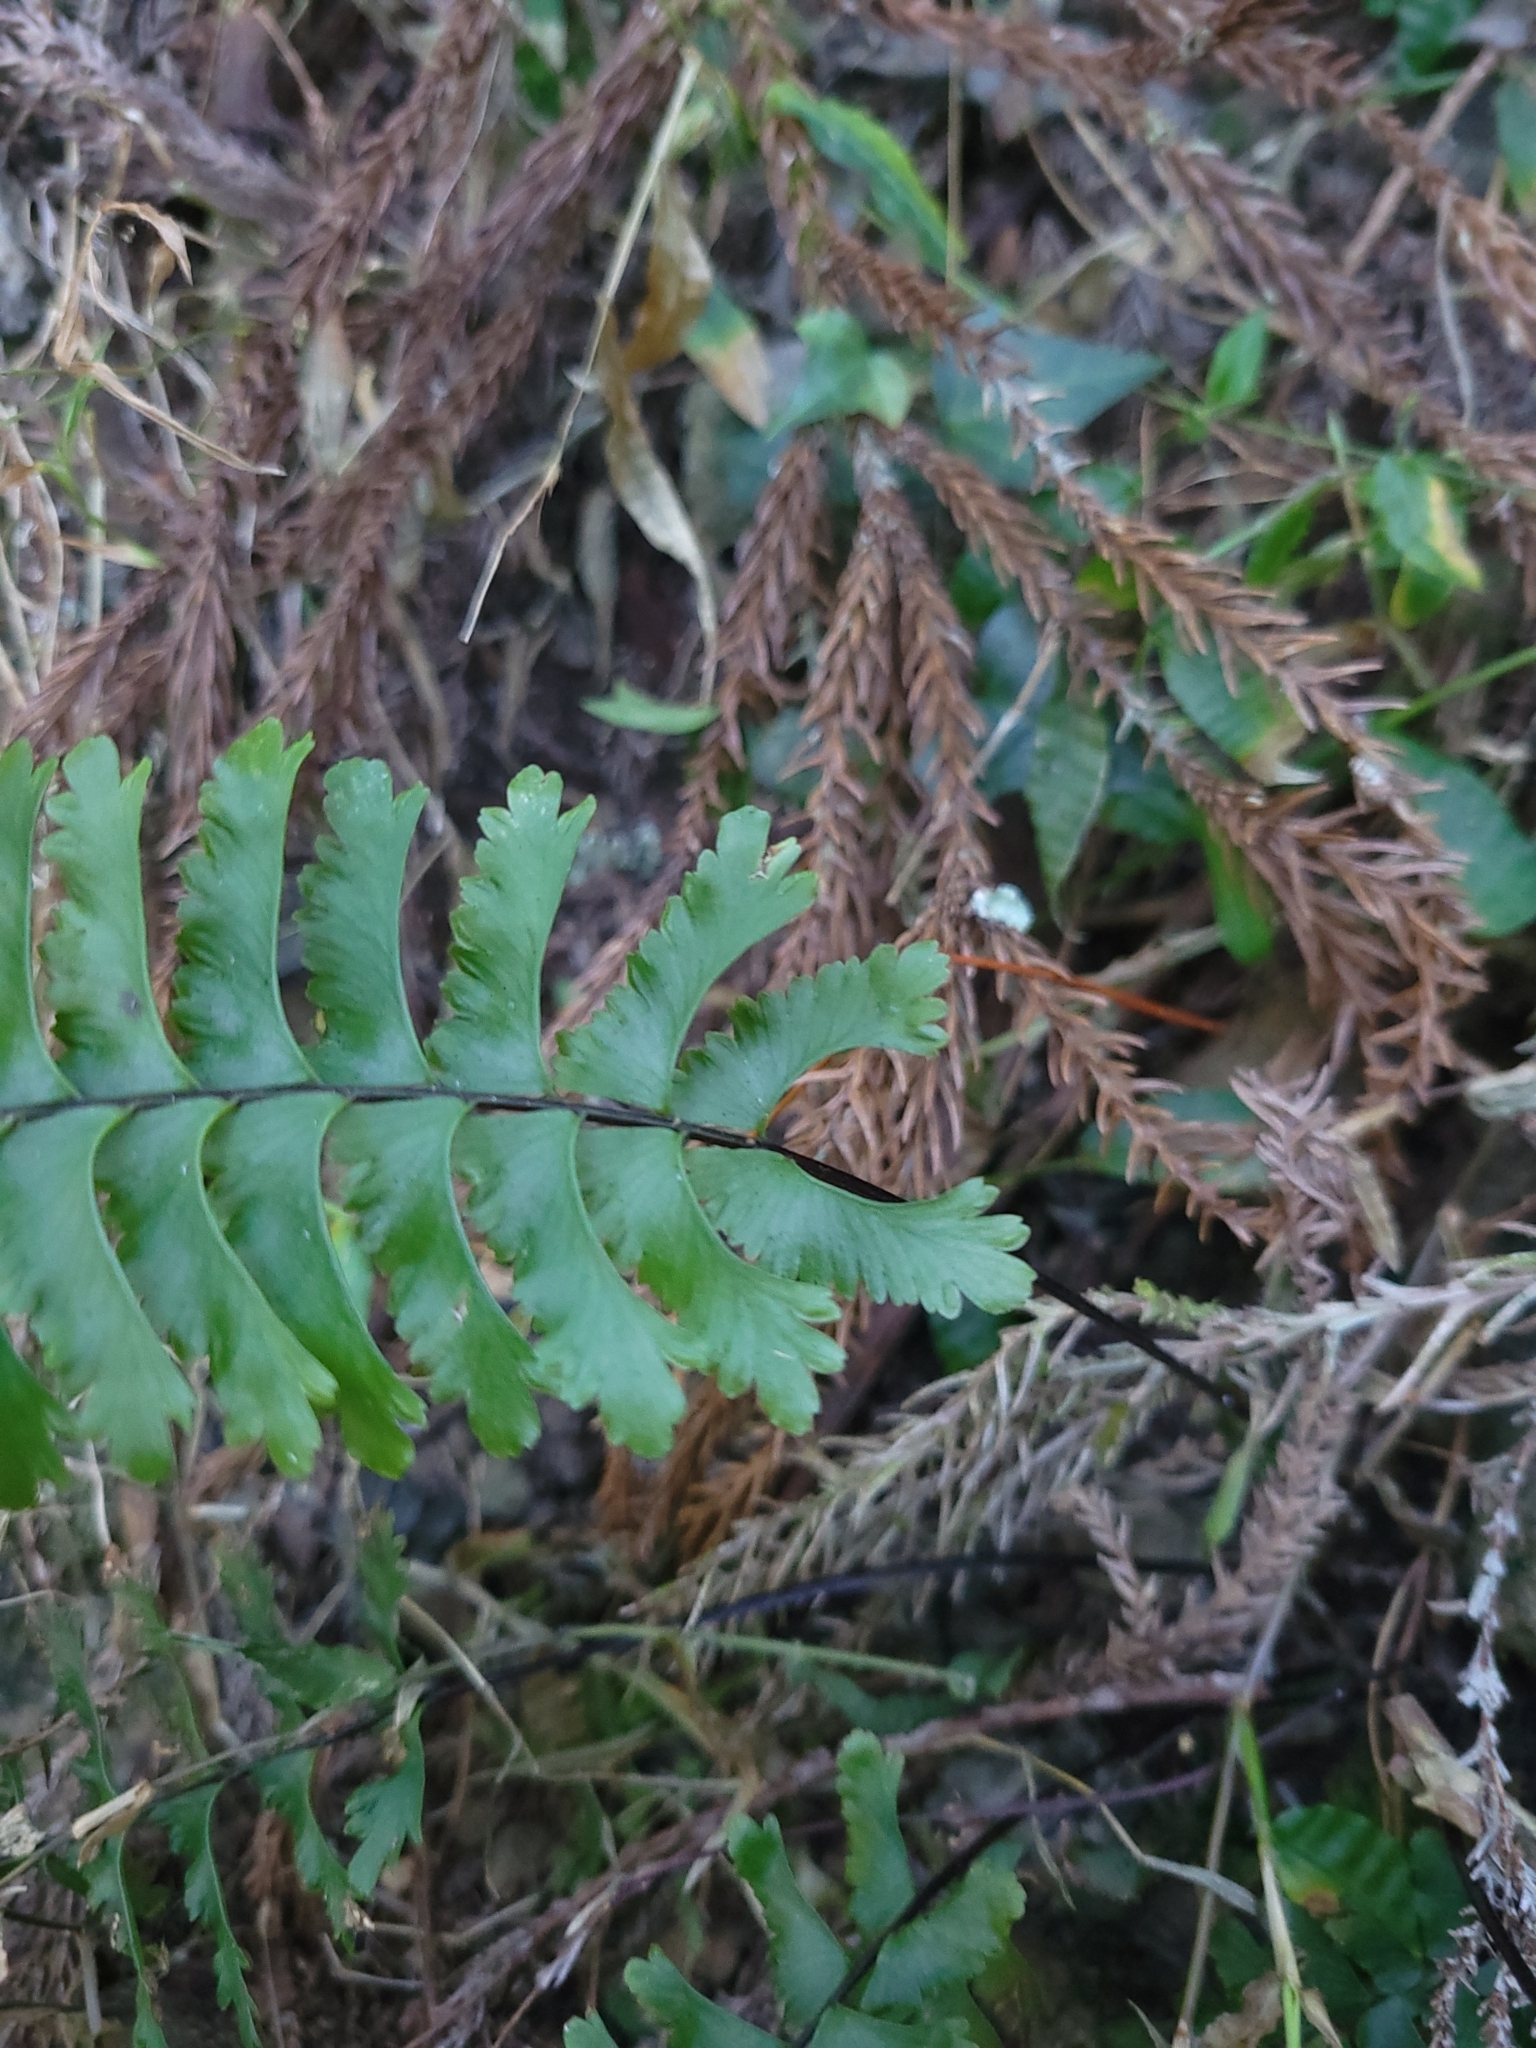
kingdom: Plantae
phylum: Tracheophyta
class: Polypodiopsida
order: Polypodiales
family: Aspleniaceae
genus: Hymenasplenium
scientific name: Hymenasplenium cheilosorum
